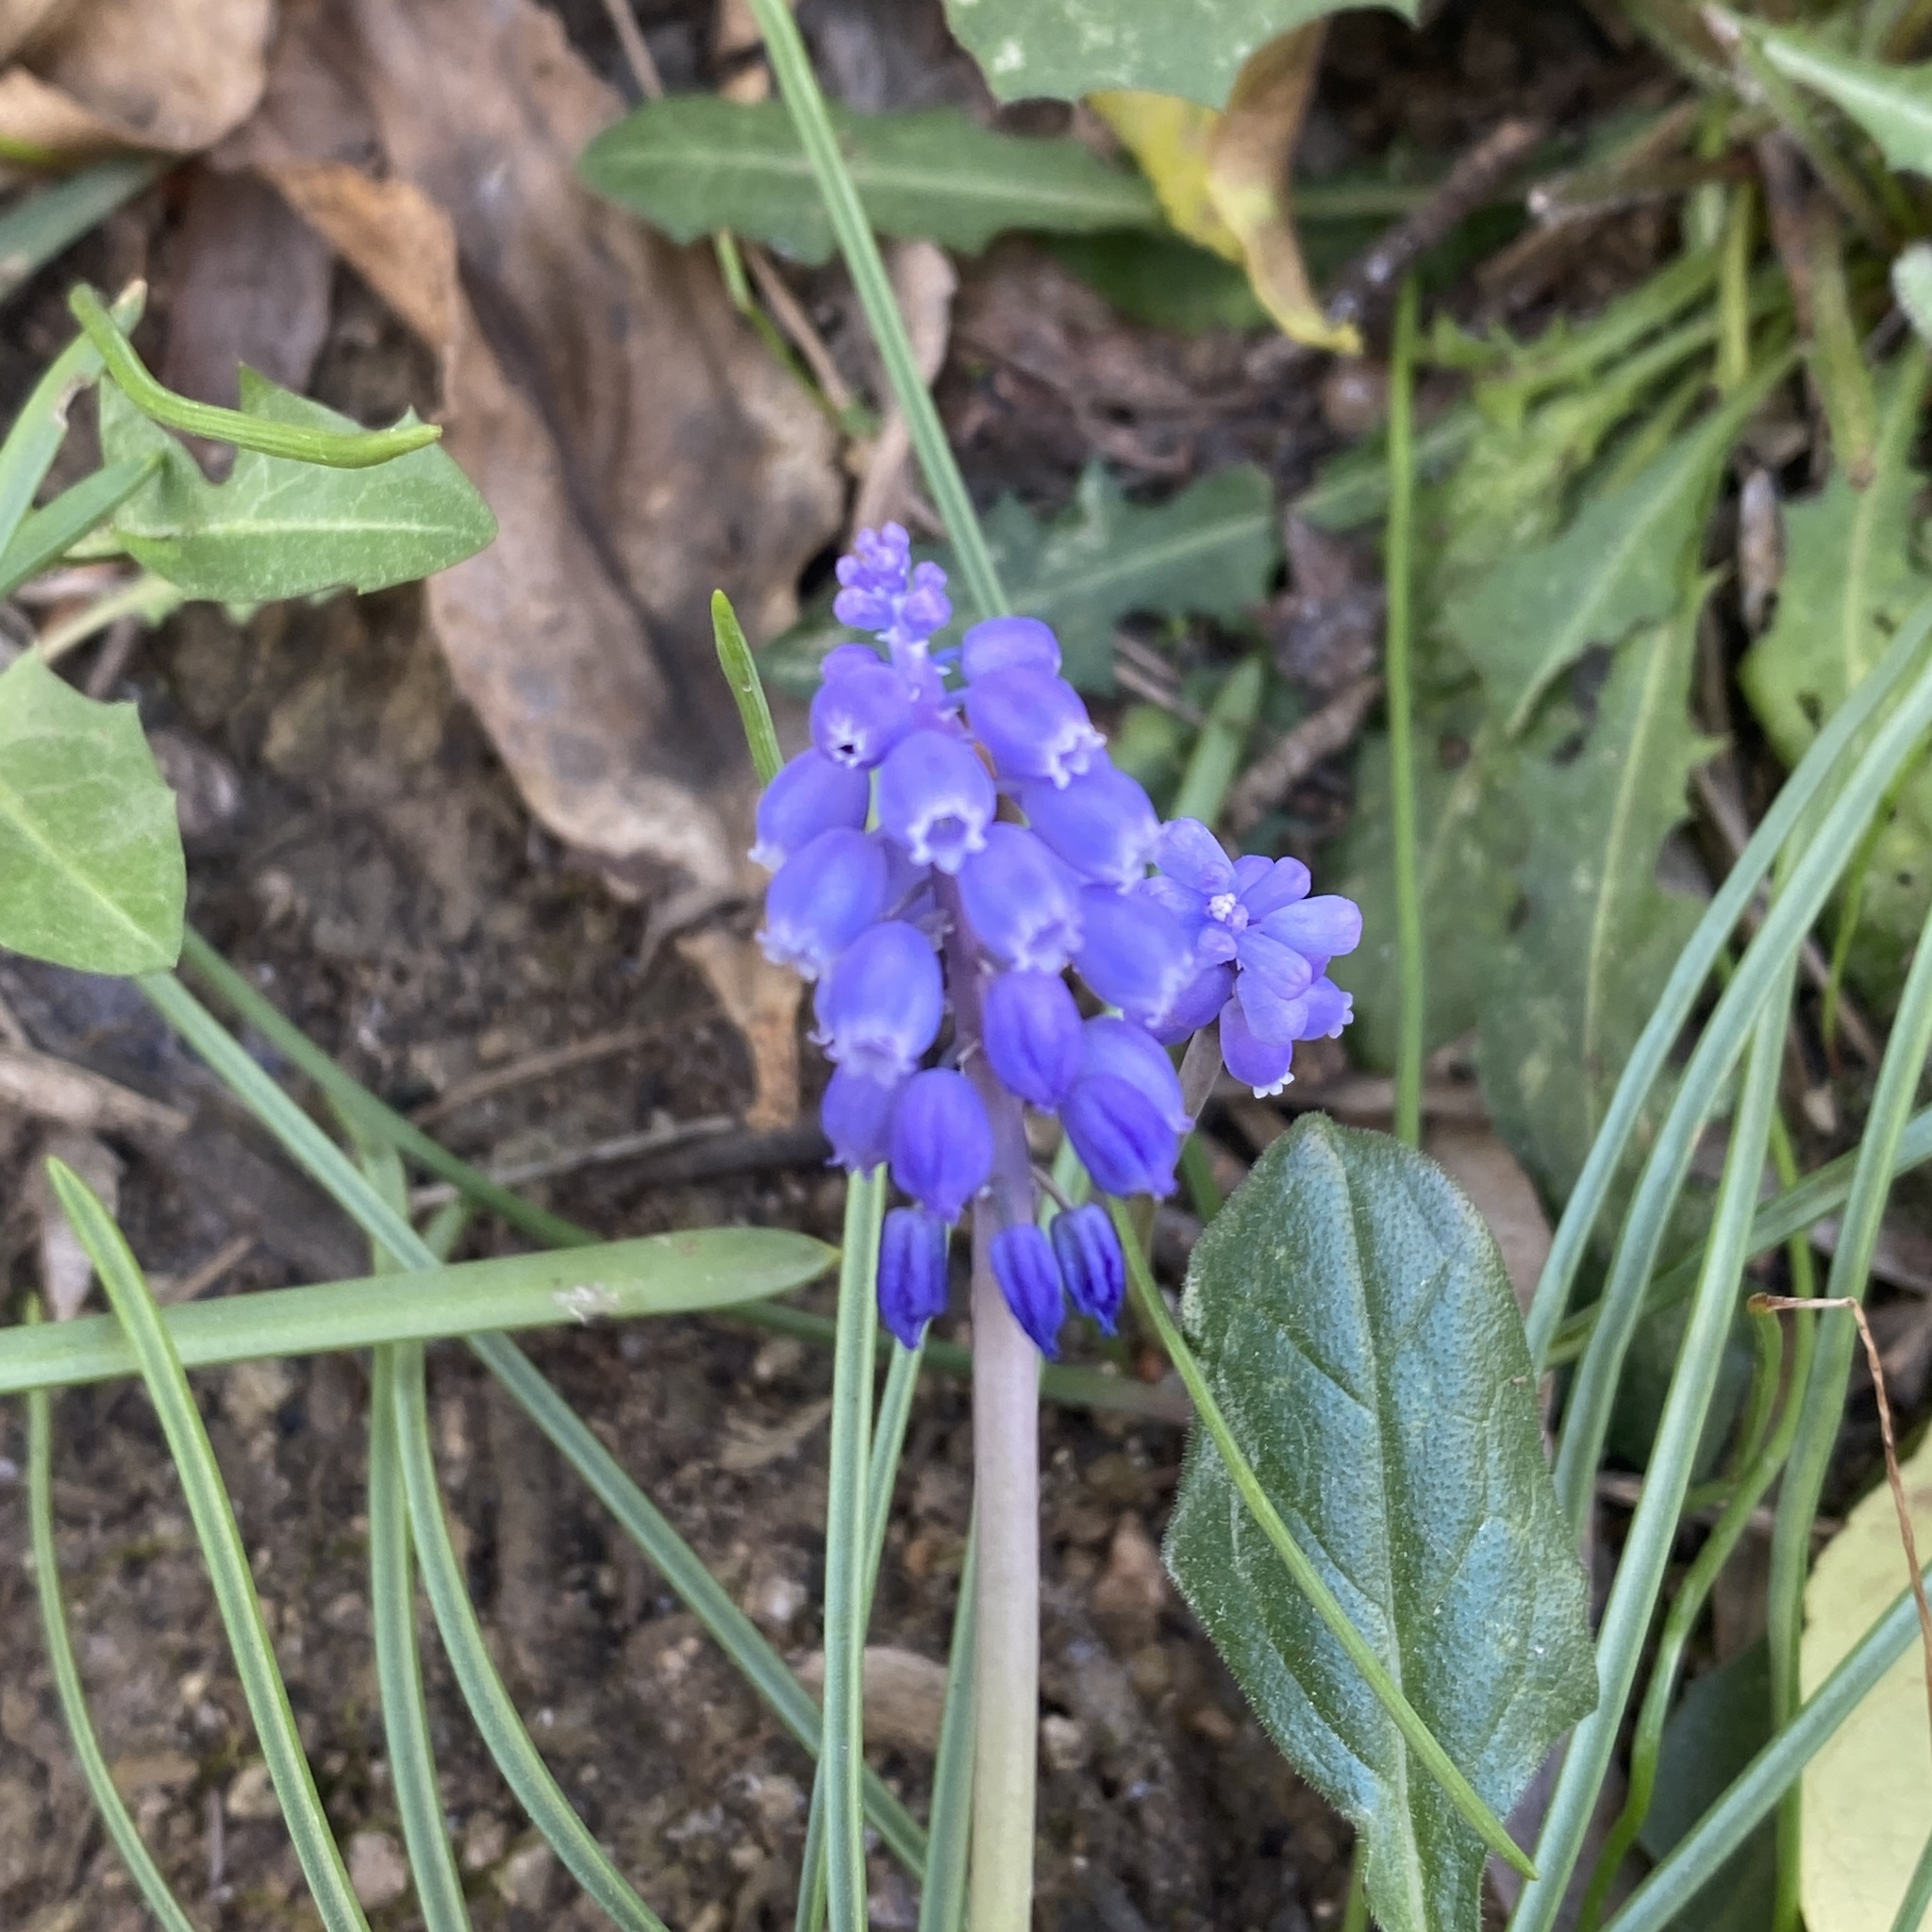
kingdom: Plantae
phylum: Tracheophyta
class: Liliopsida
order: Asparagales
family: Asparagaceae
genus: Muscari
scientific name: Muscari neglectum
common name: Grape-hyacinth
